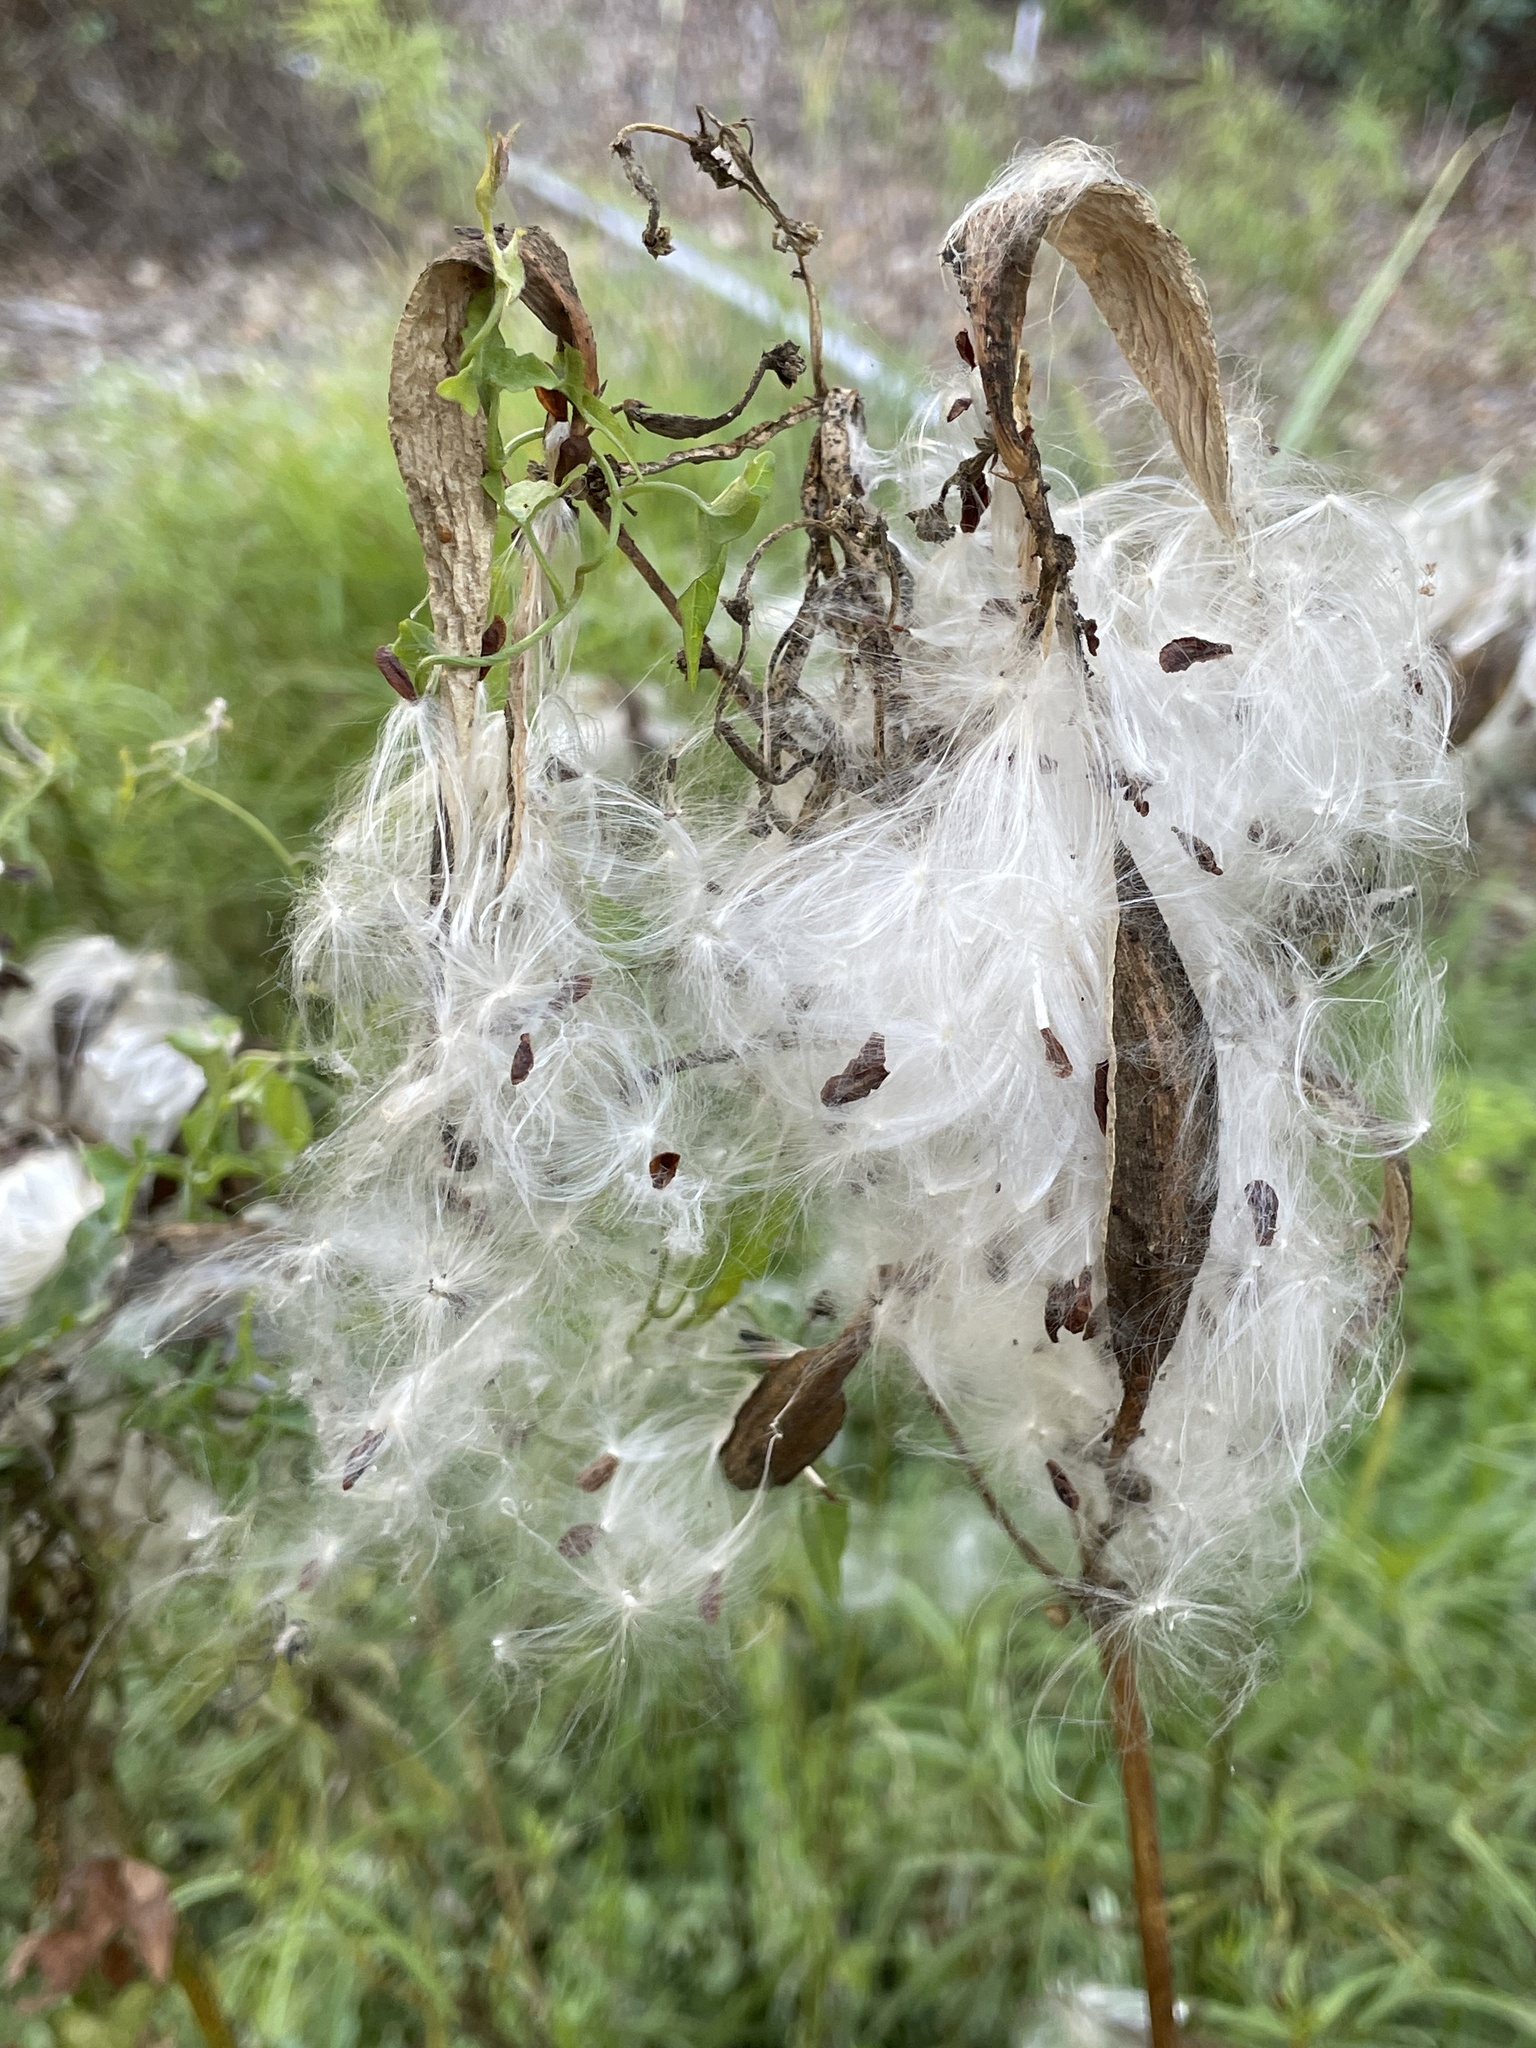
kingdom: Plantae
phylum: Tracheophyta
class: Magnoliopsida
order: Gentianales
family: Apocynaceae
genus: Asclepias
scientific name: Asclepias fascicularis
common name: Mexican milkweed
